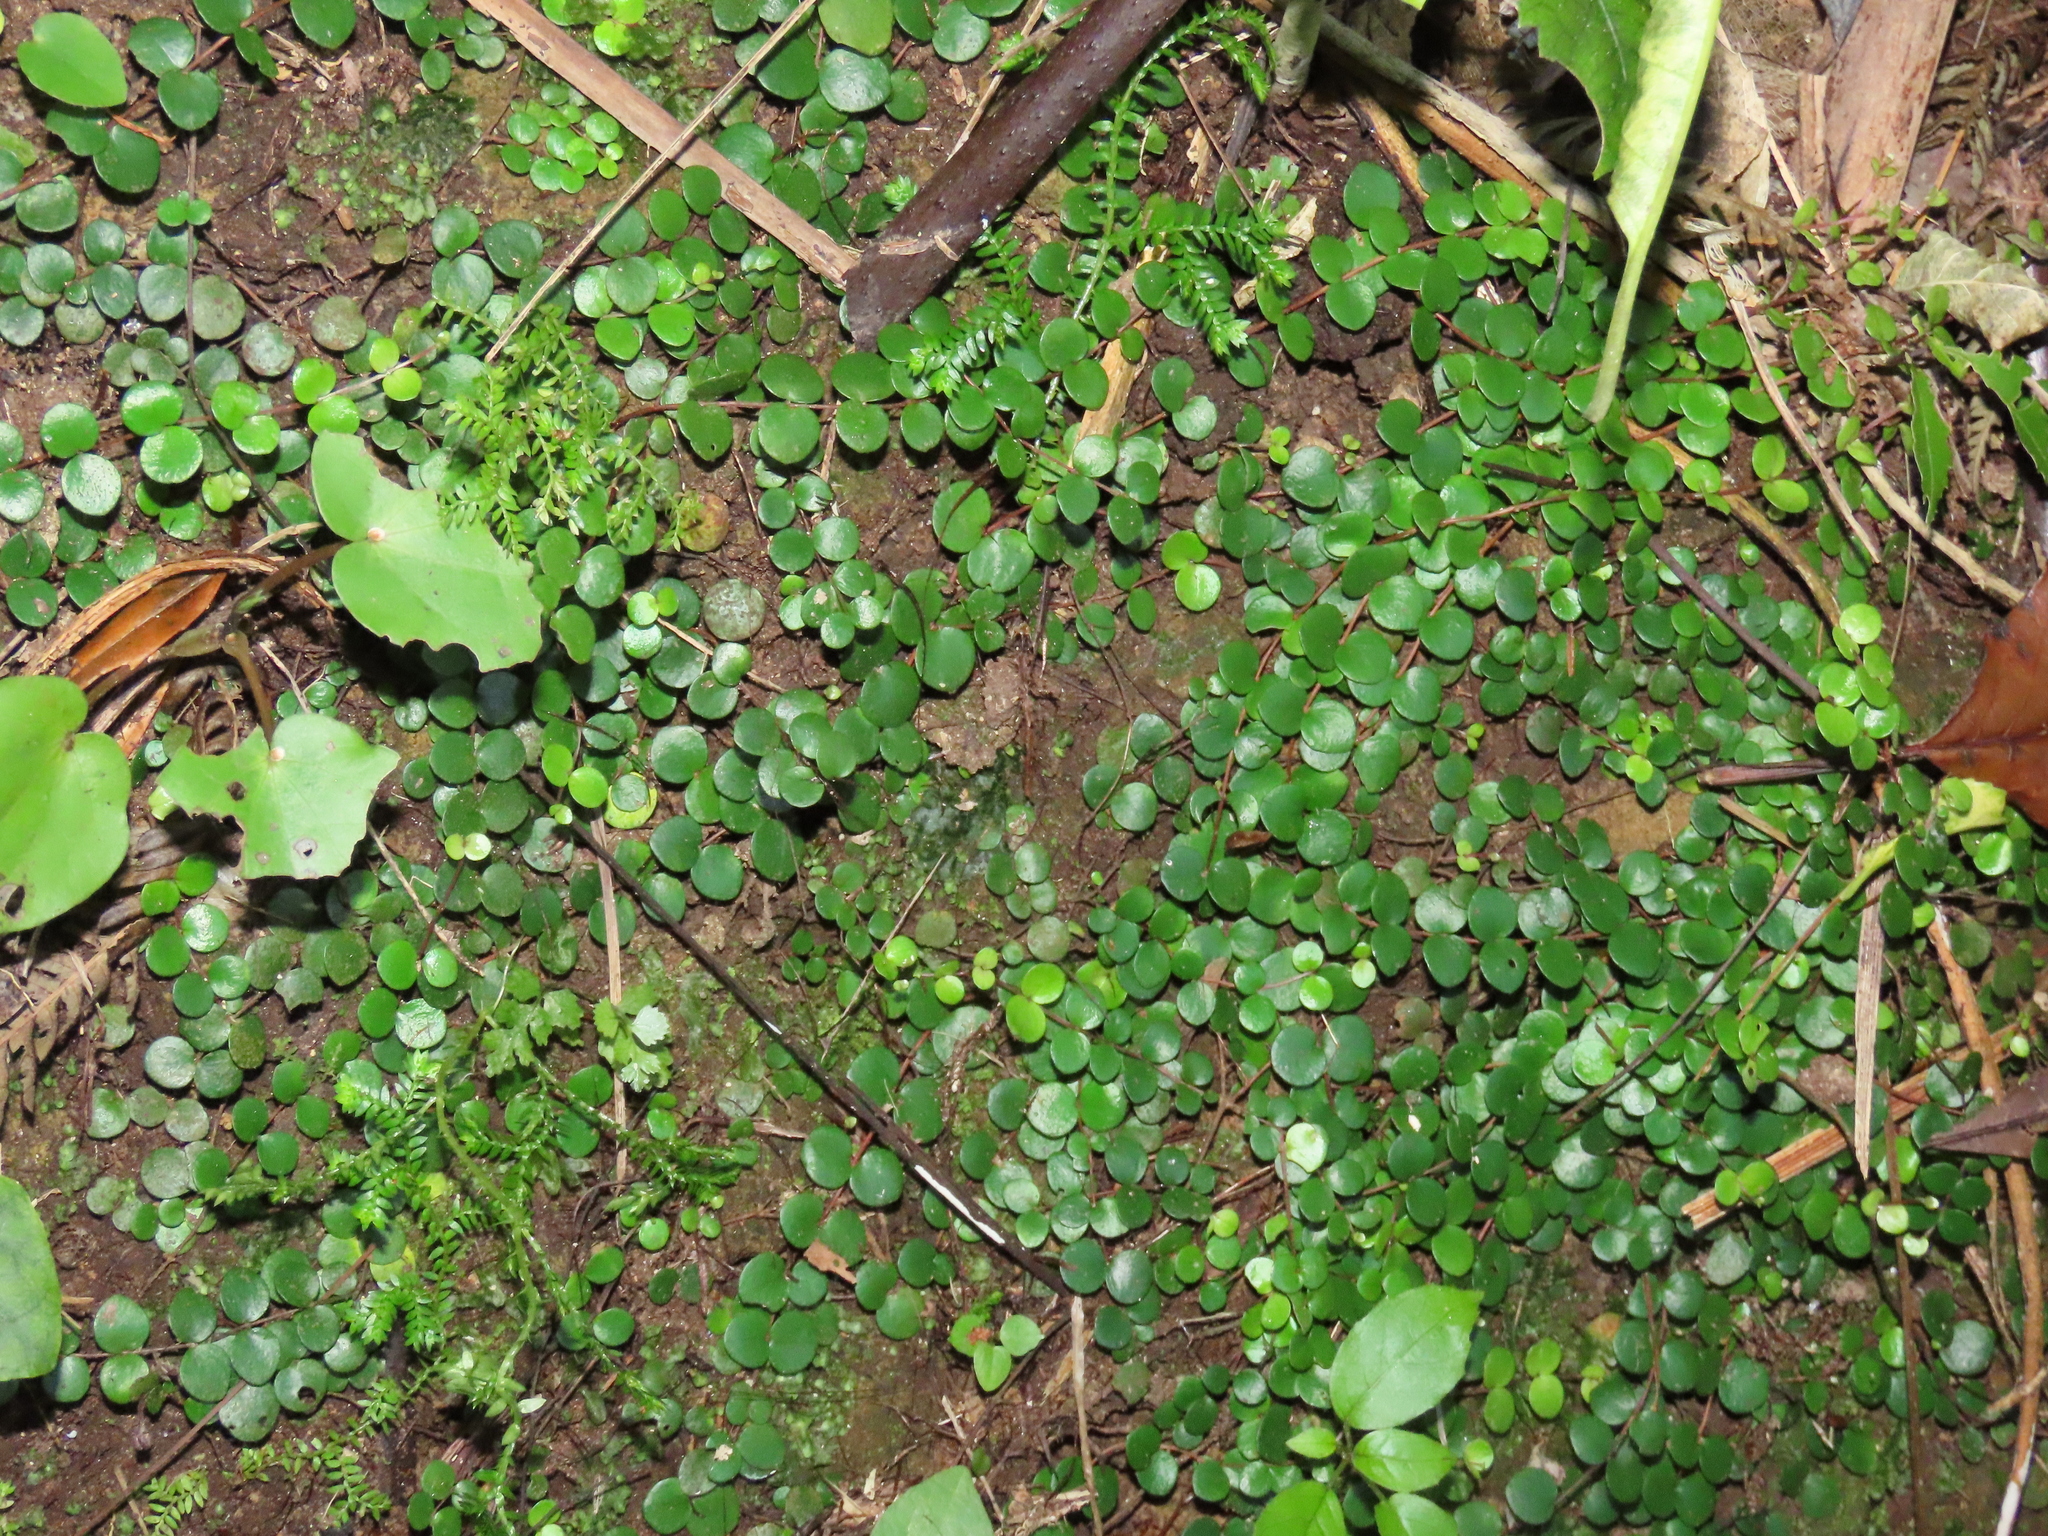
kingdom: Plantae
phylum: Tracheophyta
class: Magnoliopsida
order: Myrtales
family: Myrtaceae
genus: Metrosideros
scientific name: Metrosideros perforata
